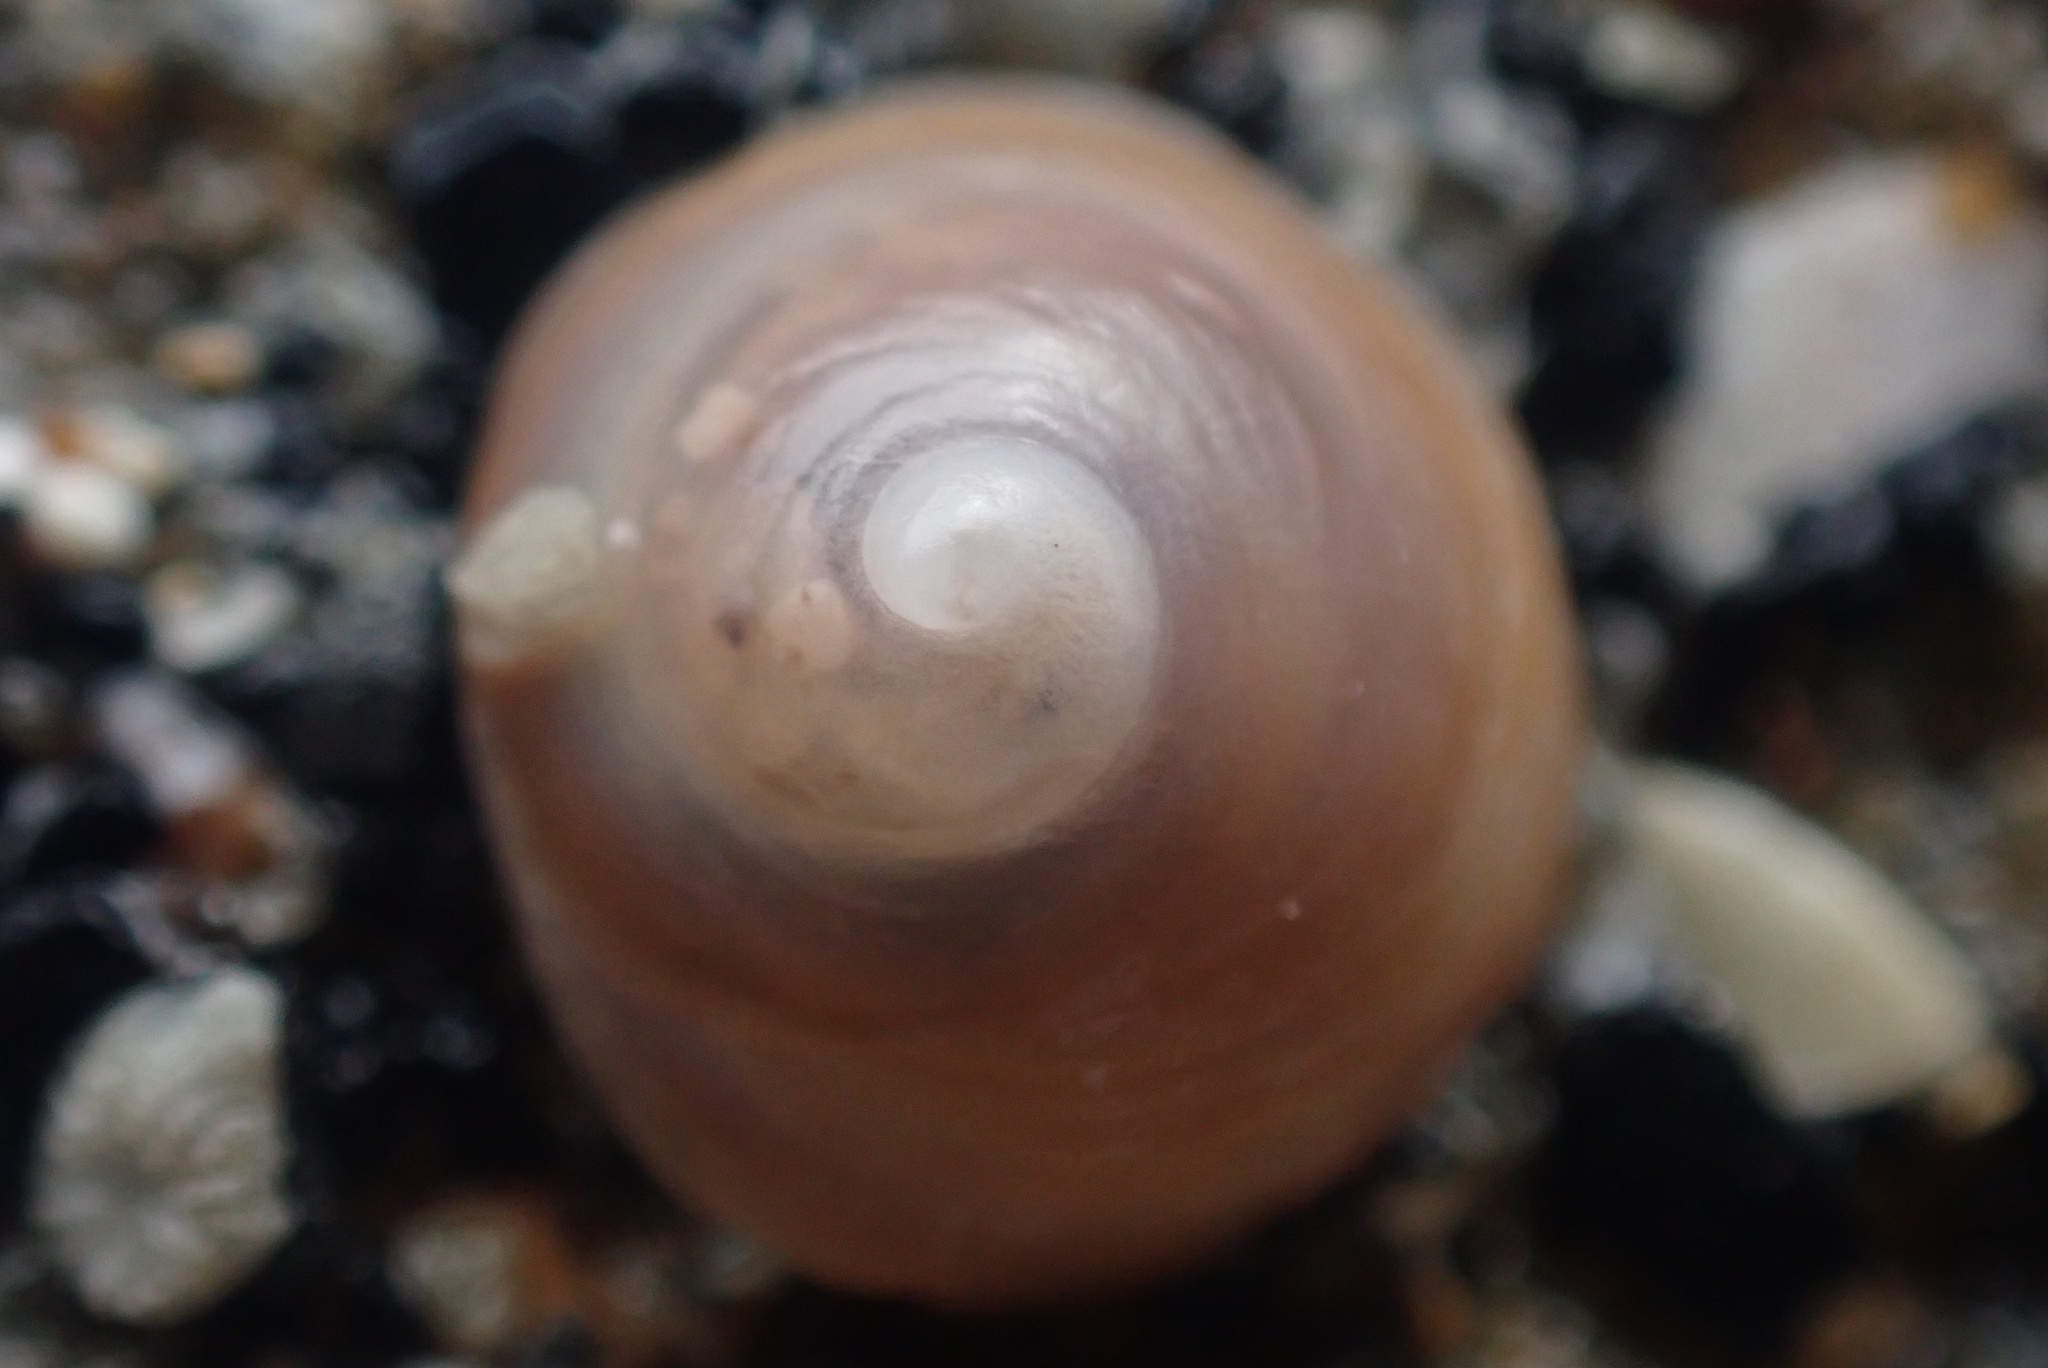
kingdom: Animalia
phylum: Mollusca
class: Gastropoda
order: Littorinimorpha
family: Calyptraeidae
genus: Sigapatella
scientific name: Sigapatella tenuis
